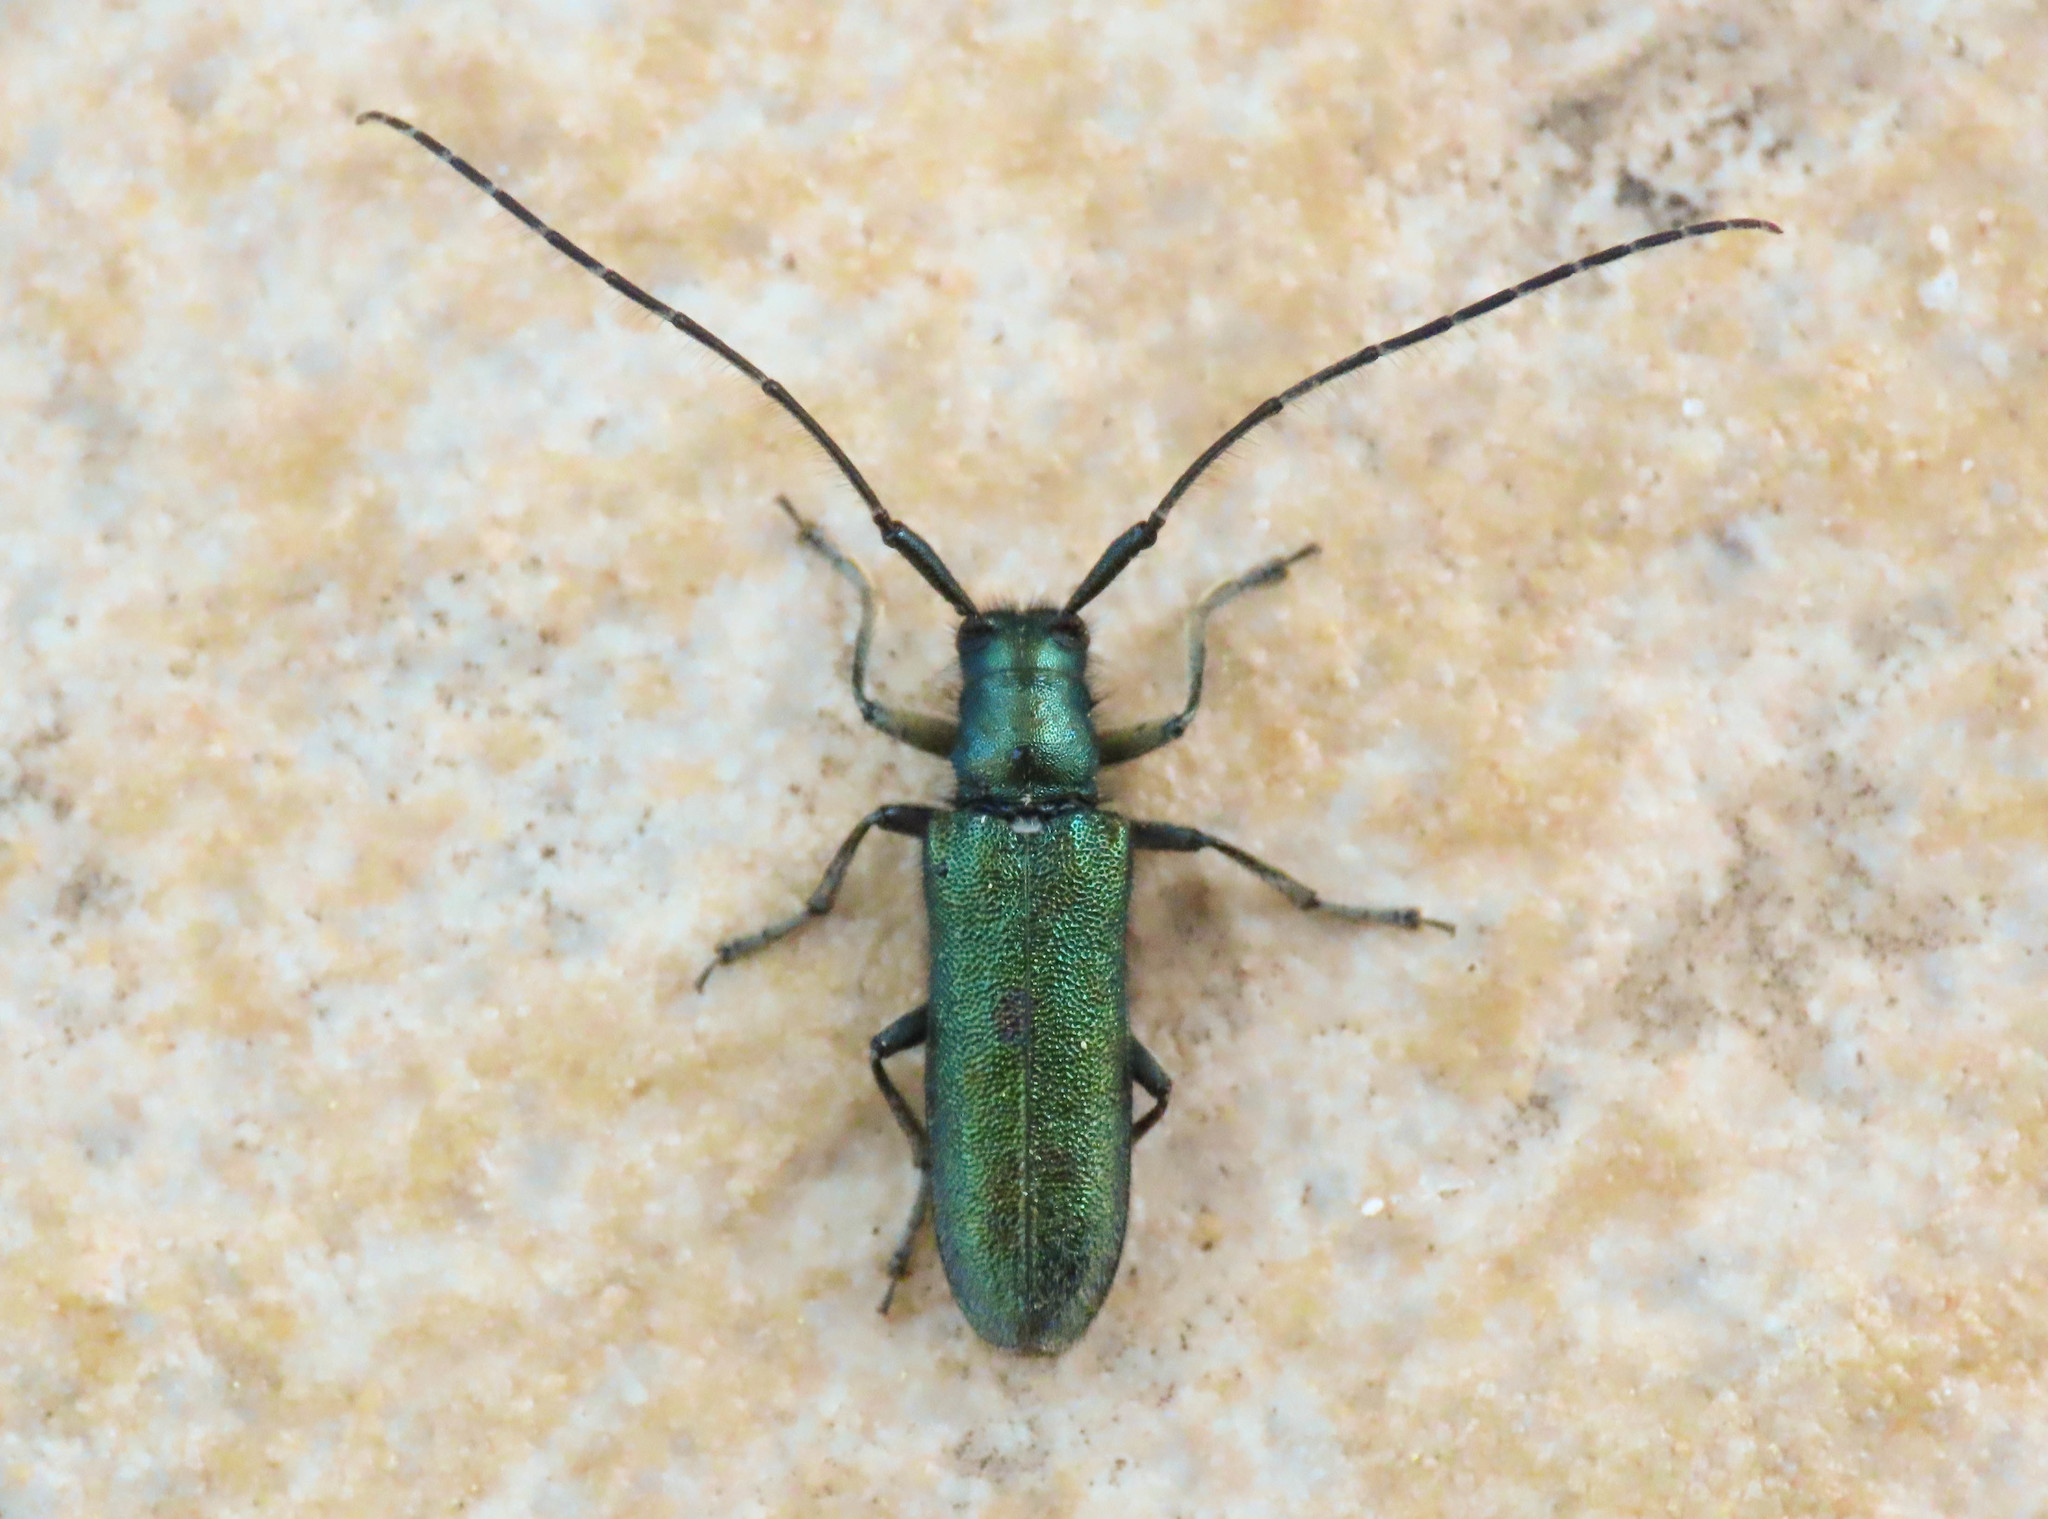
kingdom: Animalia
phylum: Arthropoda
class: Insecta
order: Coleoptera
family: Cerambycidae
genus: Agapanthia
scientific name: Agapanthia violacea
